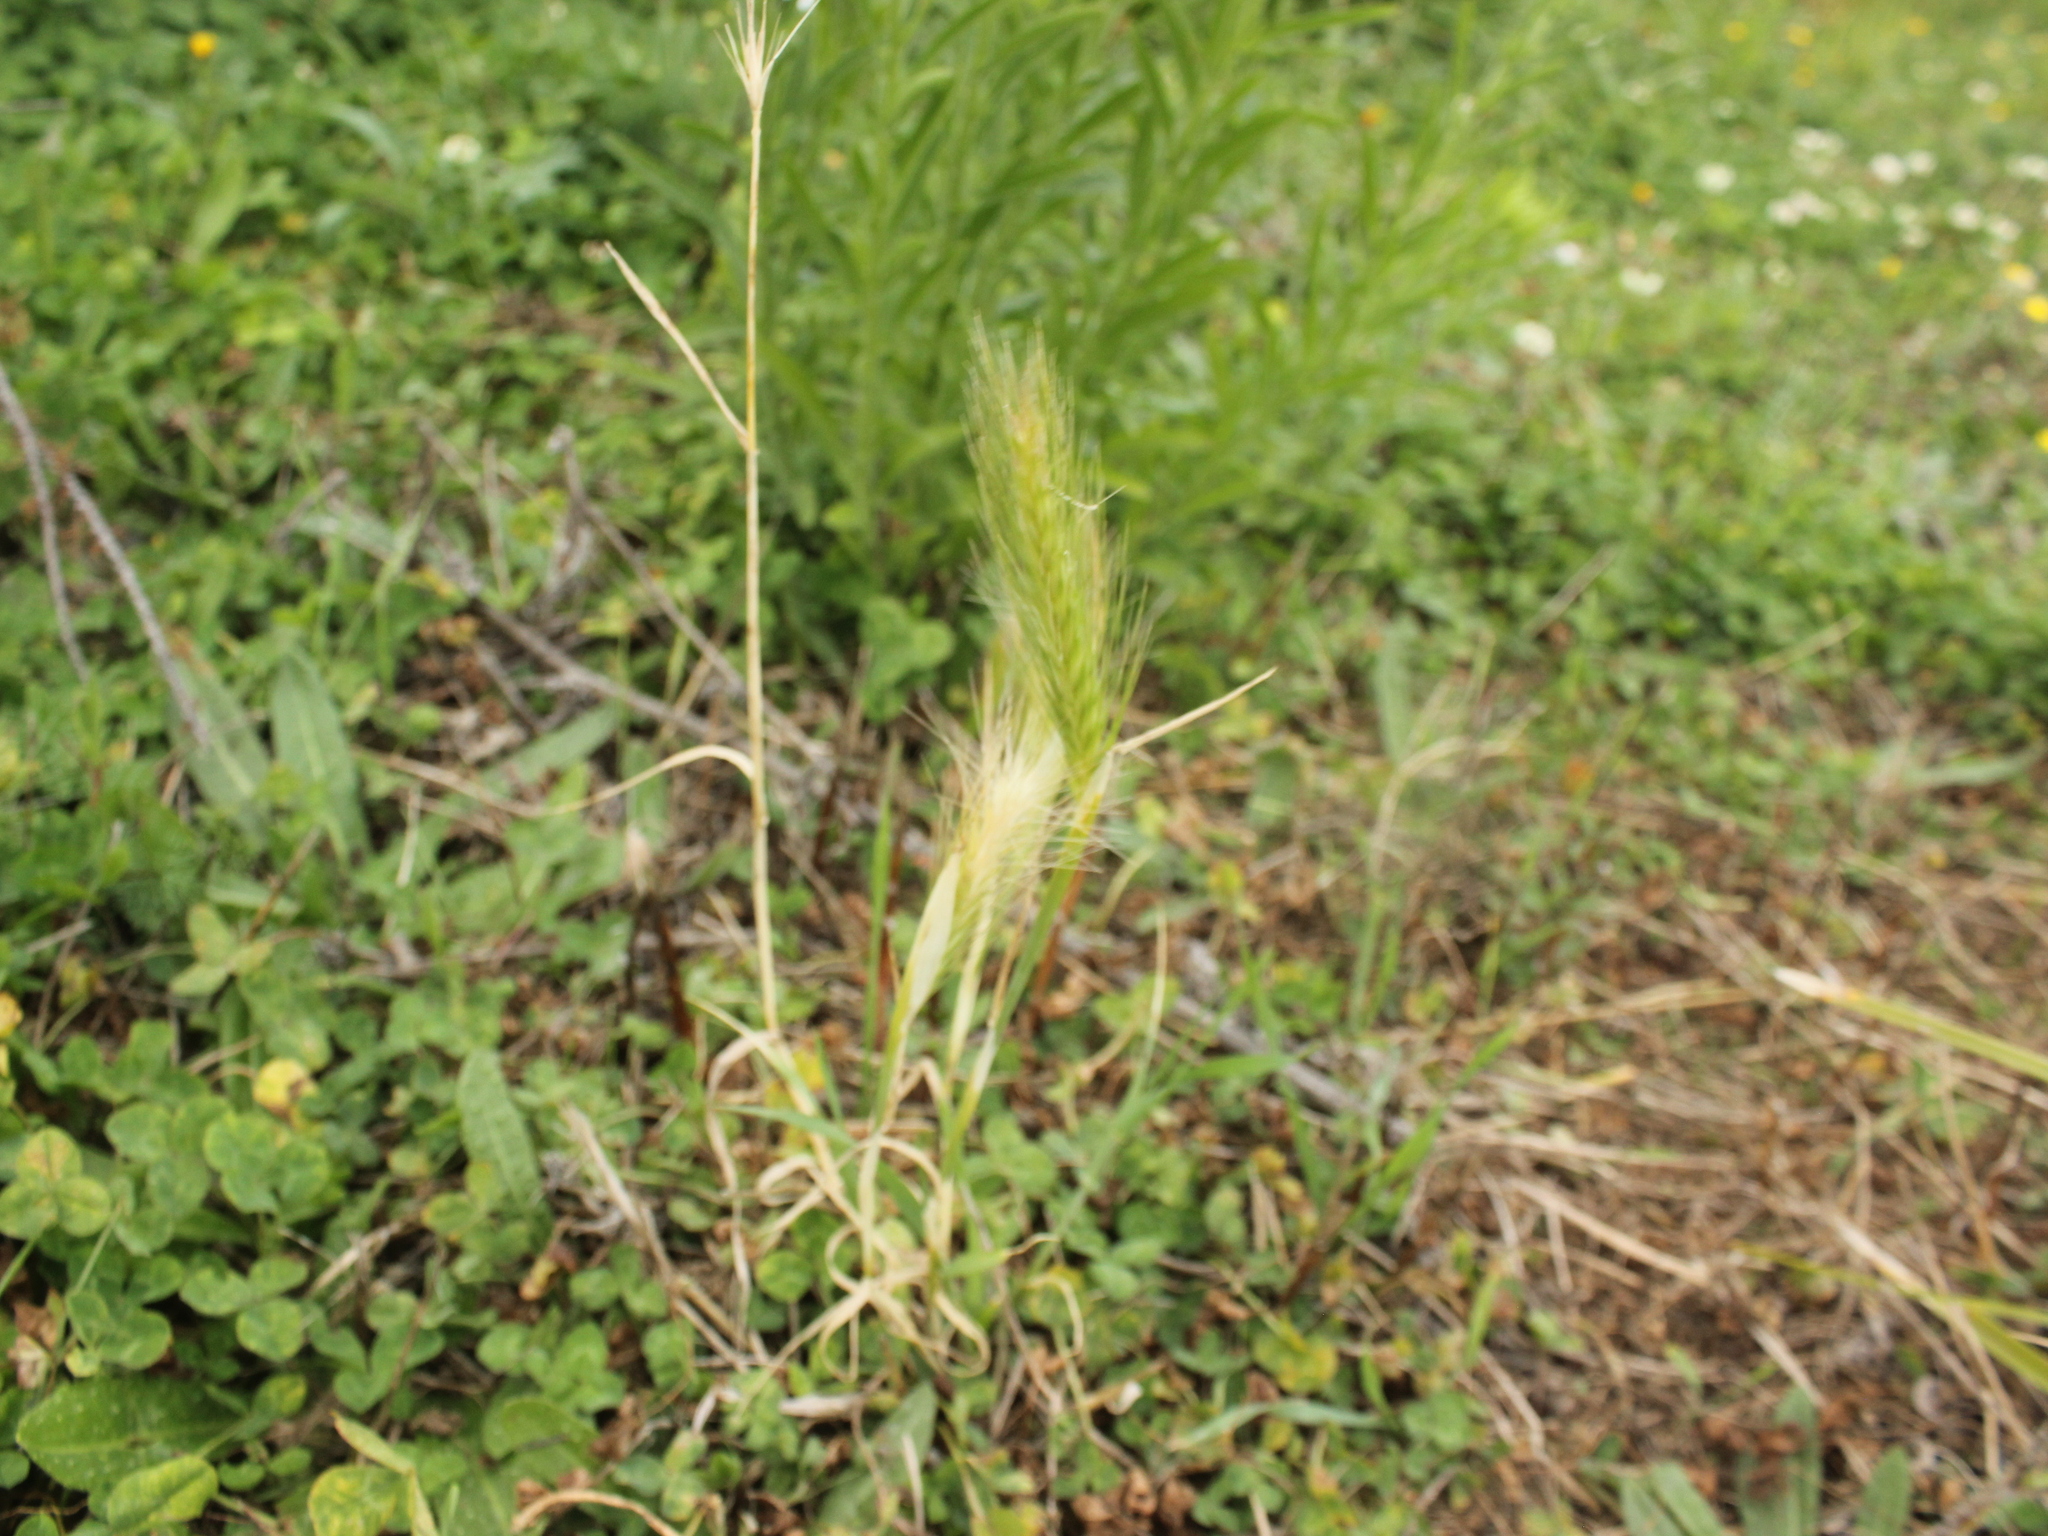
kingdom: Plantae
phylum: Tracheophyta
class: Liliopsida
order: Poales
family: Poaceae
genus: Hordeum
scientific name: Hordeum murinum
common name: Wall barley
